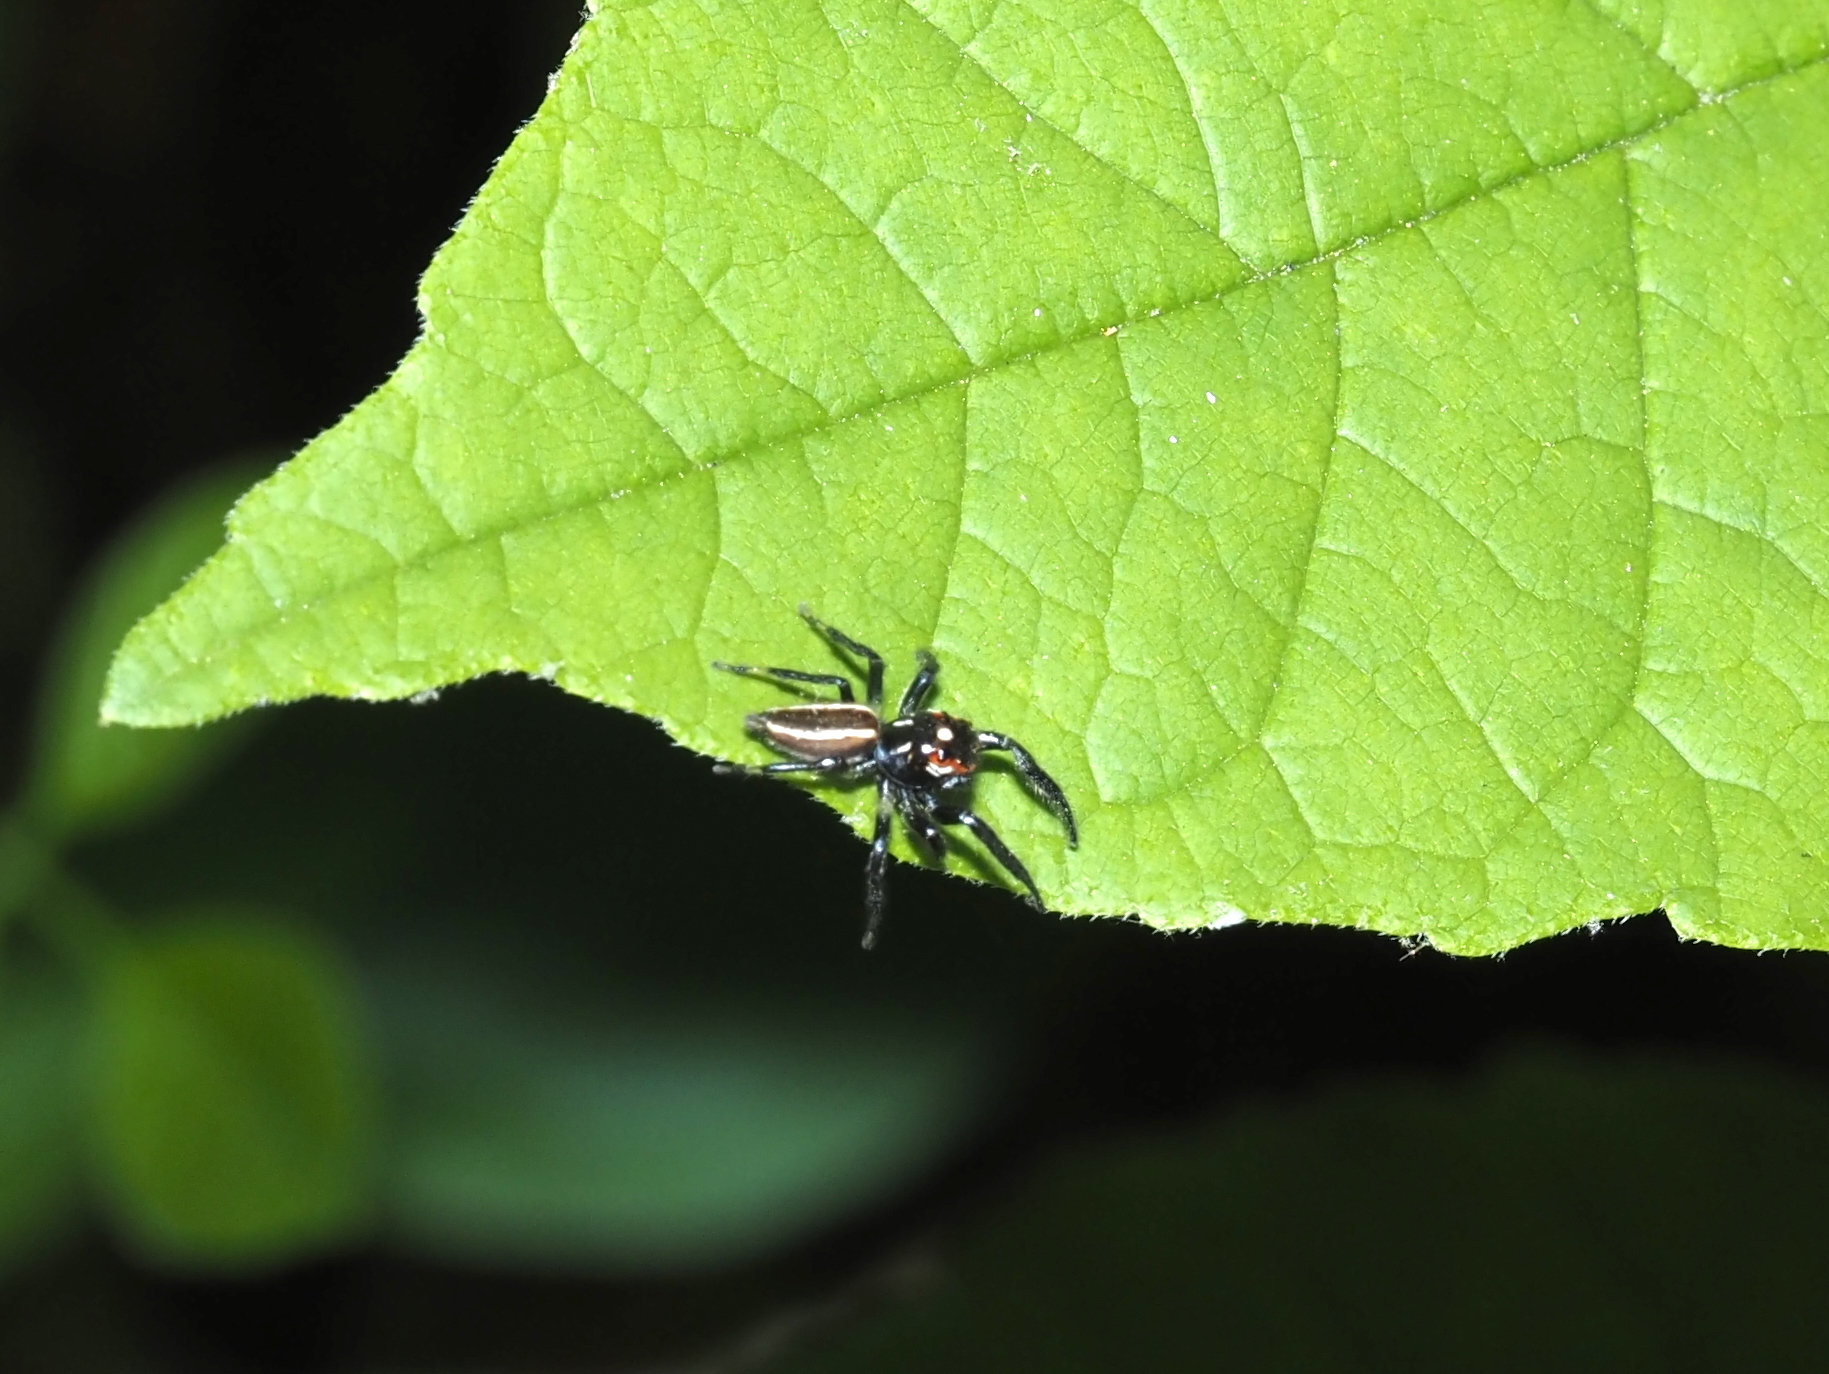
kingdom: Animalia
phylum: Arthropoda
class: Arachnida
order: Araneae
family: Salticidae
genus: Colonus
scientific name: Colonus sylvanus
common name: Jumping spiders
